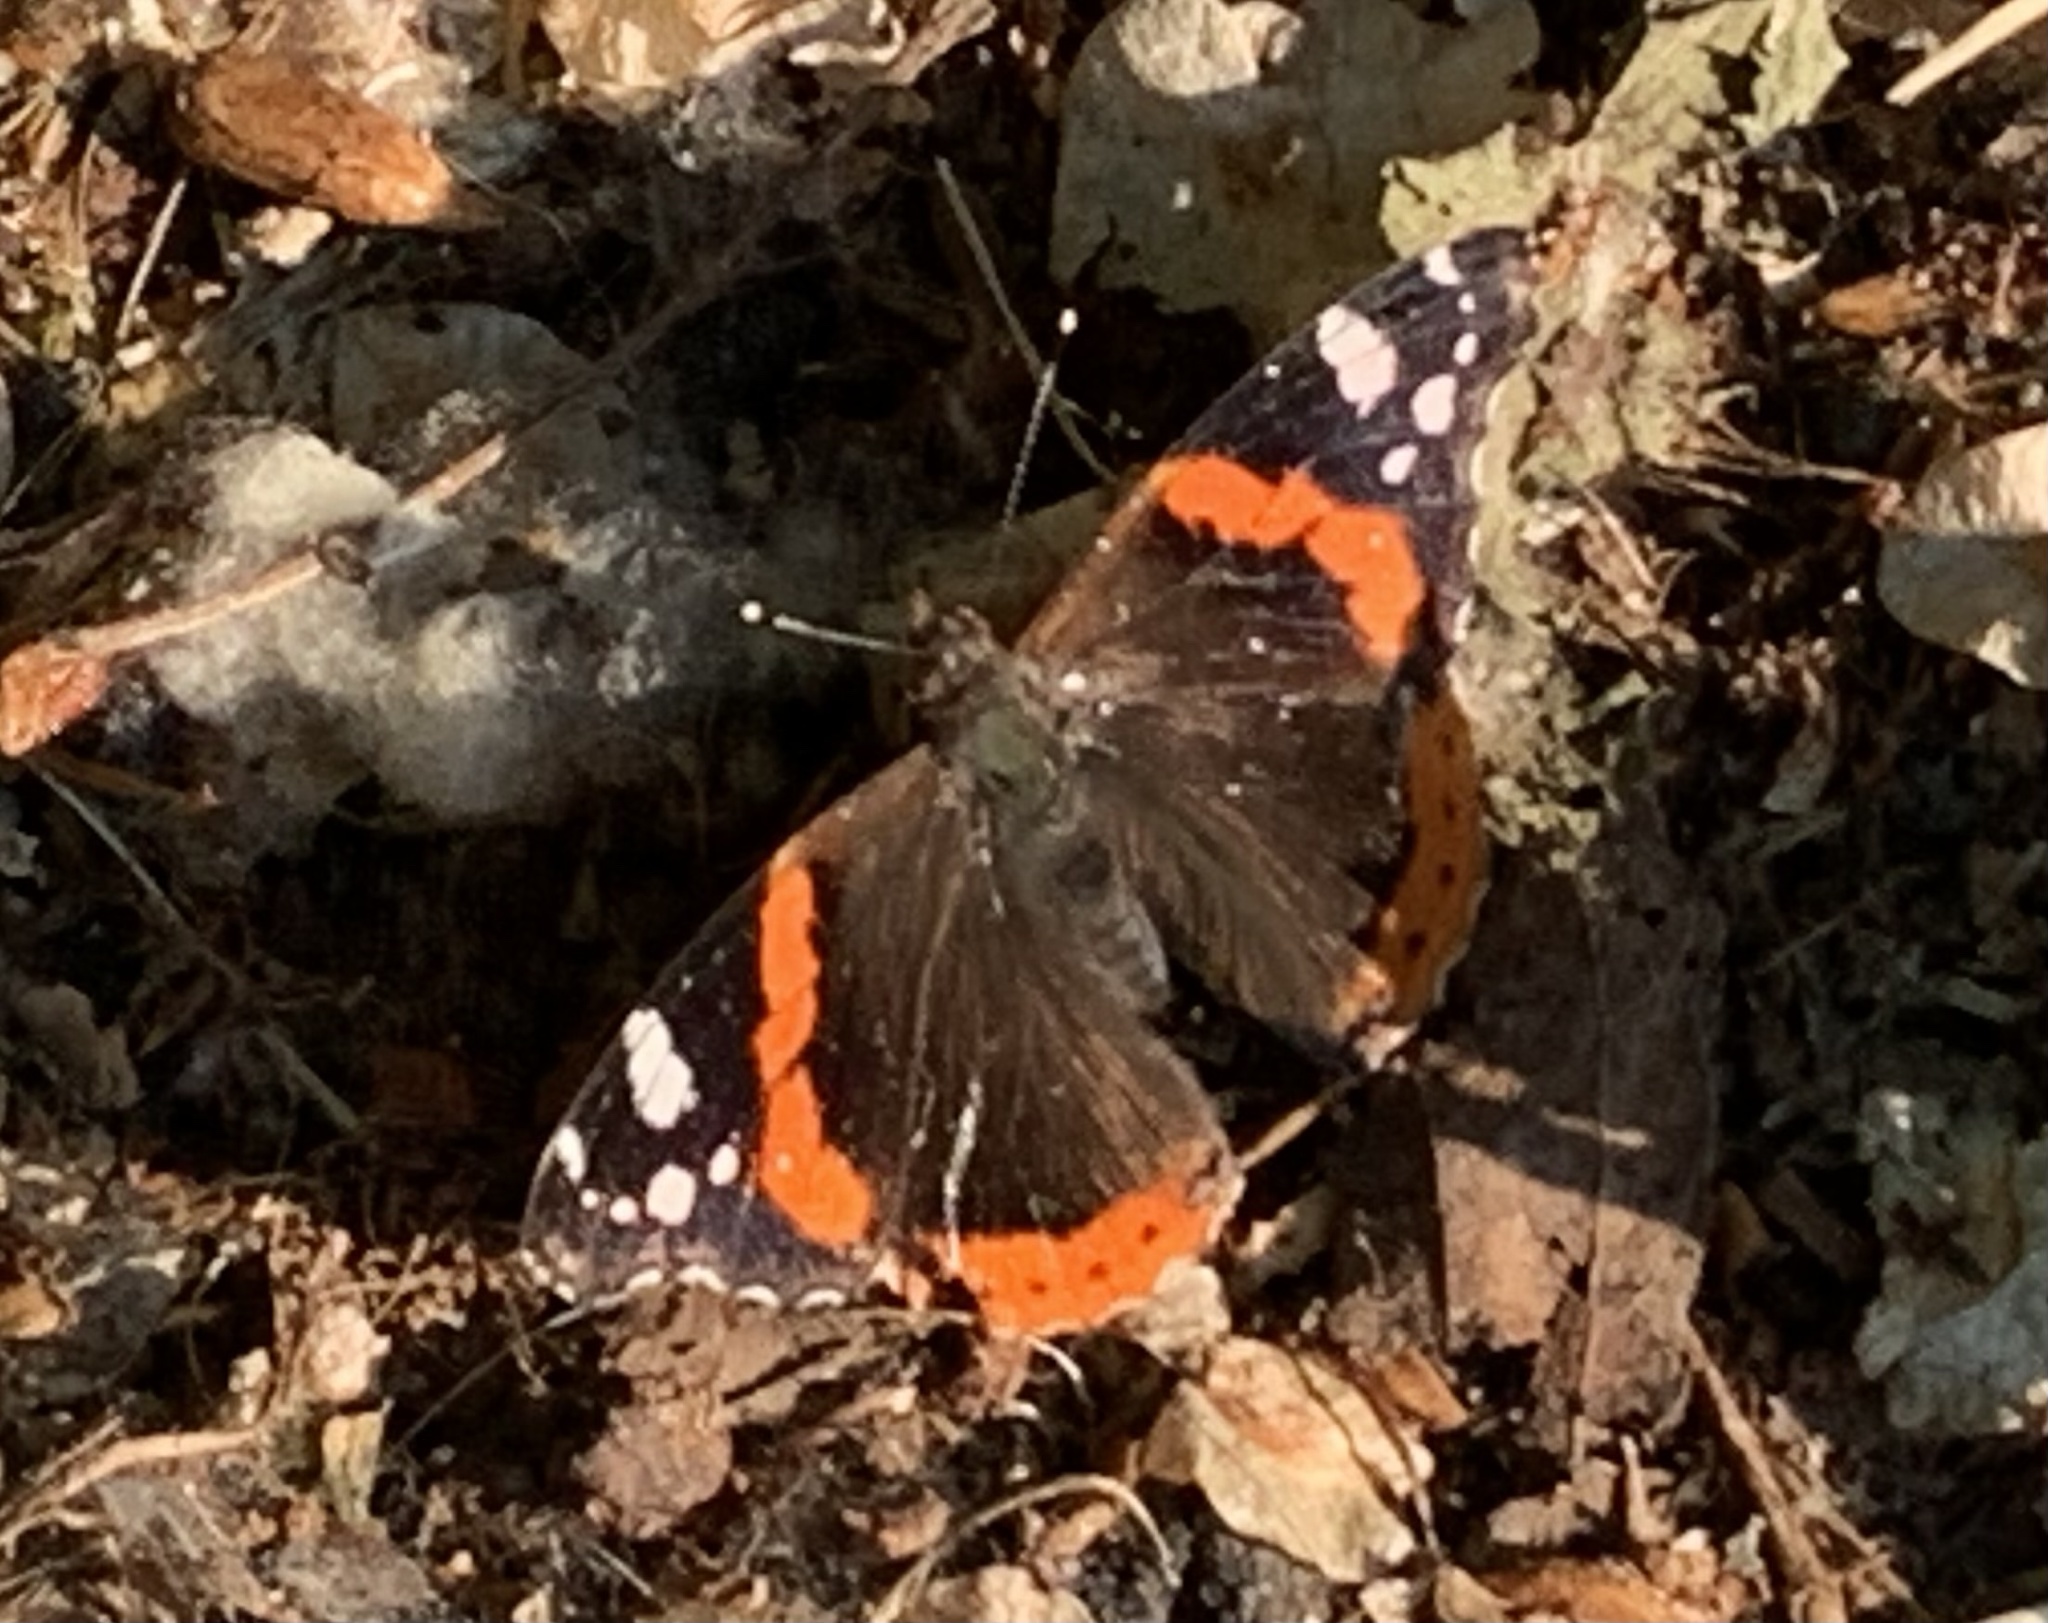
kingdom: Animalia
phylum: Arthropoda
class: Insecta
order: Lepidoptera
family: Nymphalidae
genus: Vanessa
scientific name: Vanessa atalanta
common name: Red admiral
